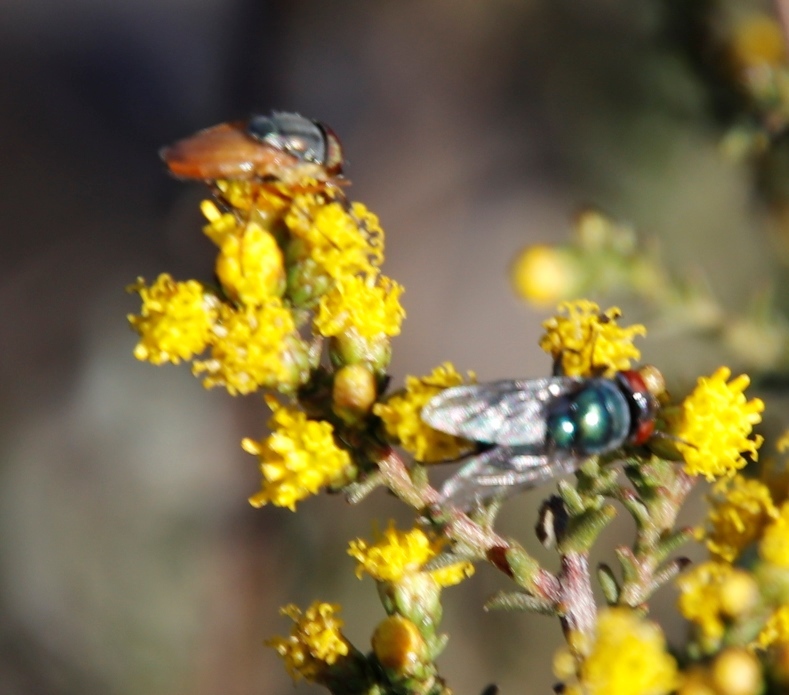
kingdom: Animalia
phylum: Arthropoda
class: Insecta
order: Diptera
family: Calliphoridae
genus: Chrysomya
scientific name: Chrysomya marginalis
